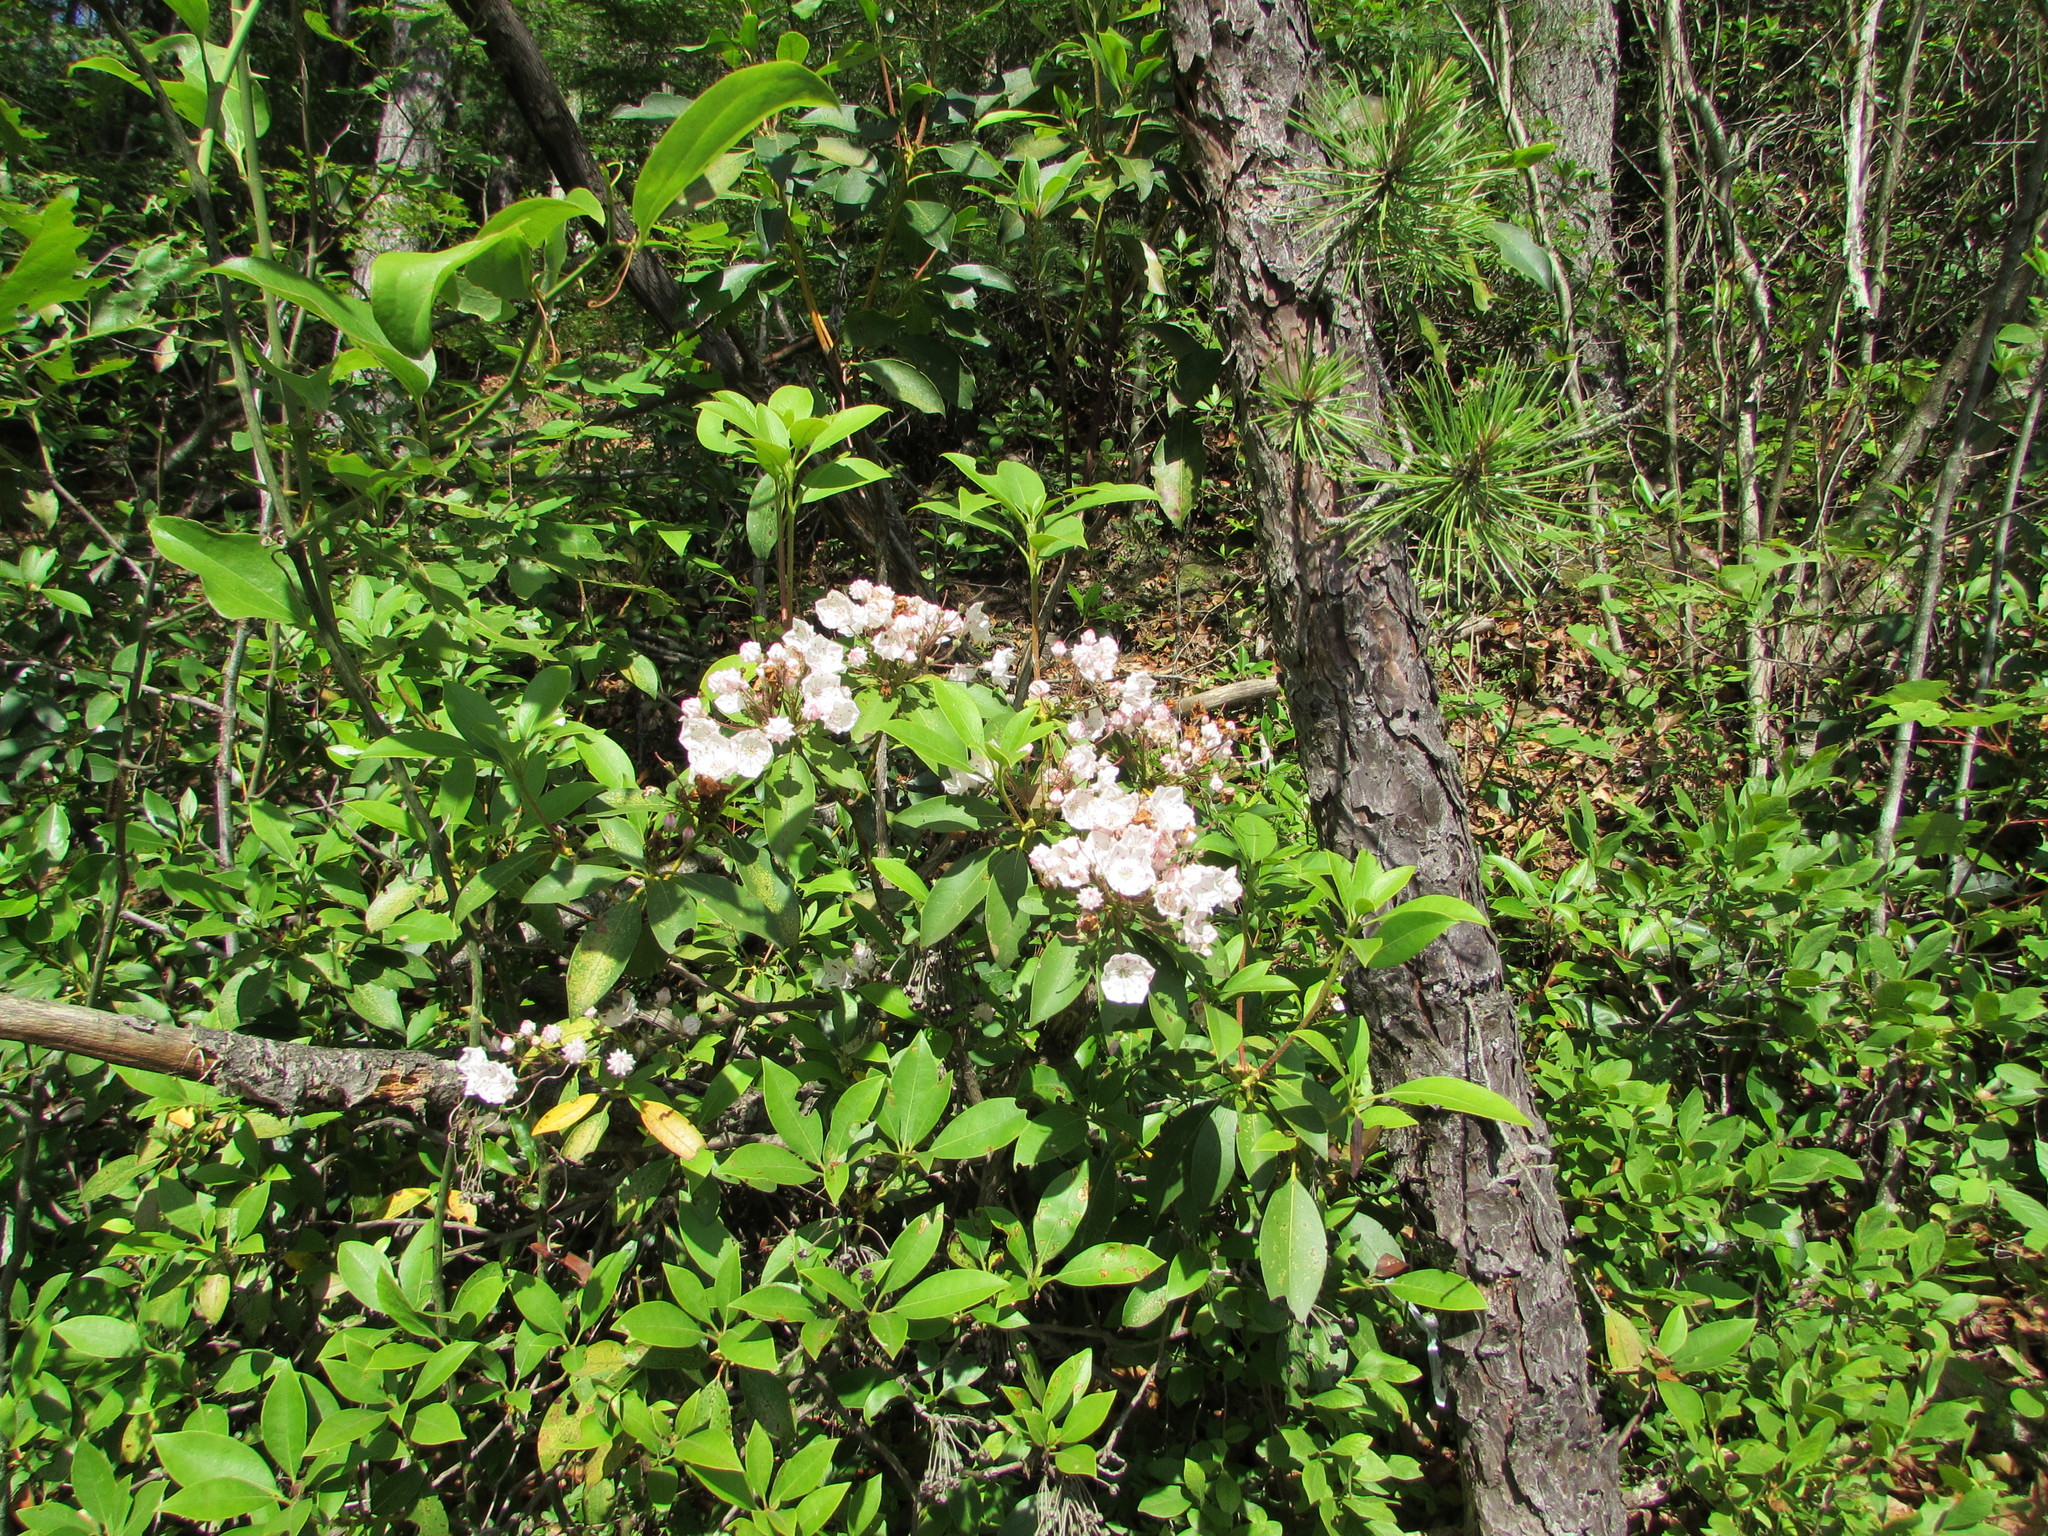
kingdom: Plantae
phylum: Tracheophyta
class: Magnoliopsida
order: Ericales
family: Ericaceae
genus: Kalmia
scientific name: Kalmia latifolia
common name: Mountain-laurel
